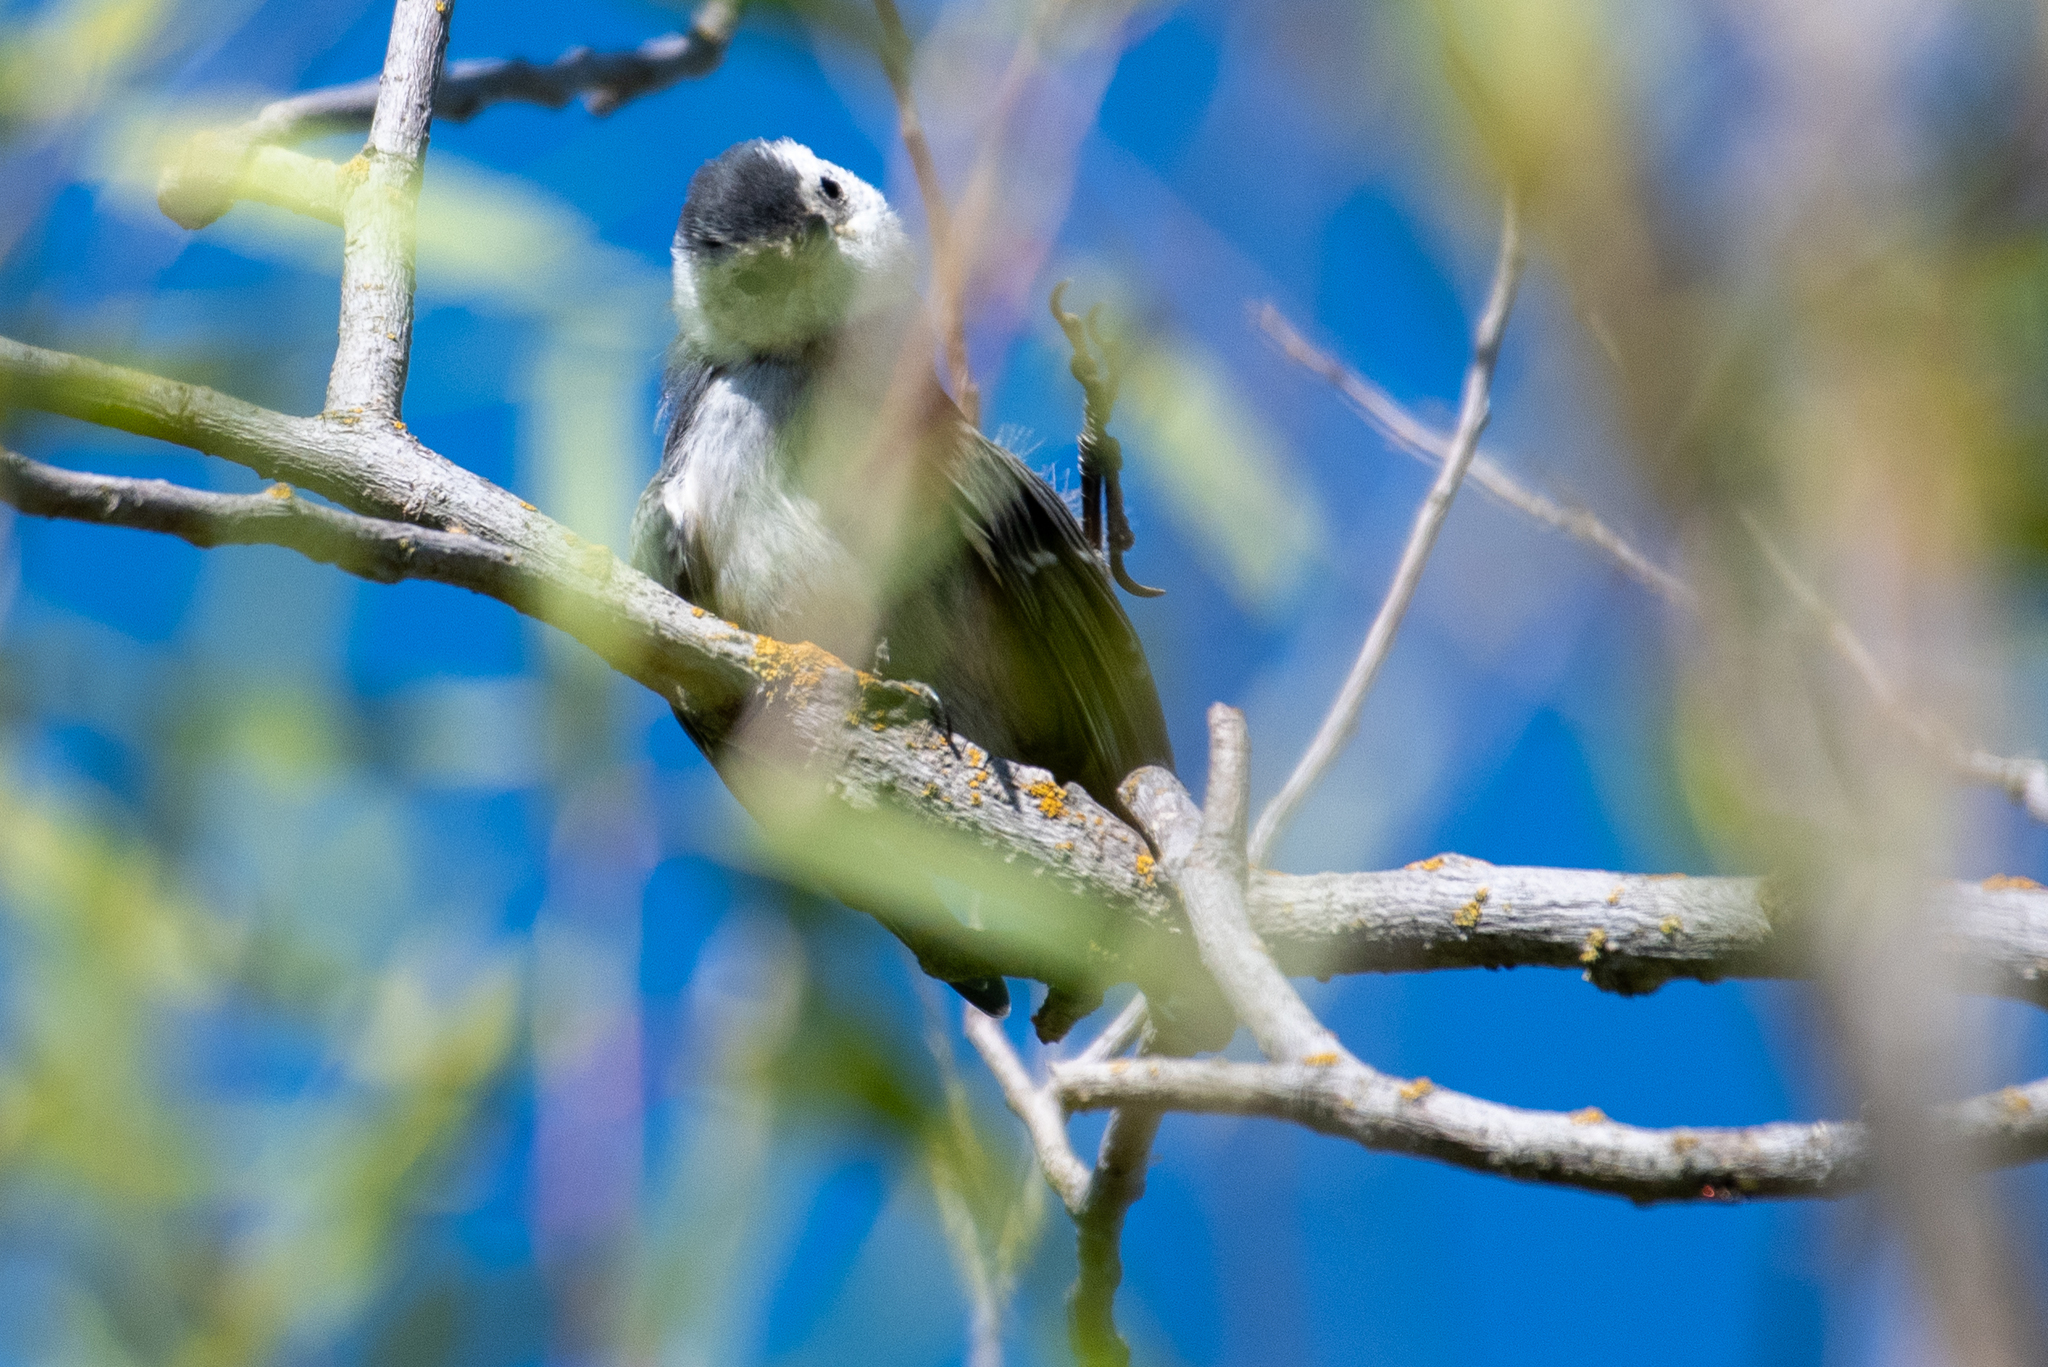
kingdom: Animalia
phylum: Chordata
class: Aves
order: Passeriformes
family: Sittidae
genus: Sitta
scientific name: Sitta carolinensis
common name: White-breasted nuthatch
